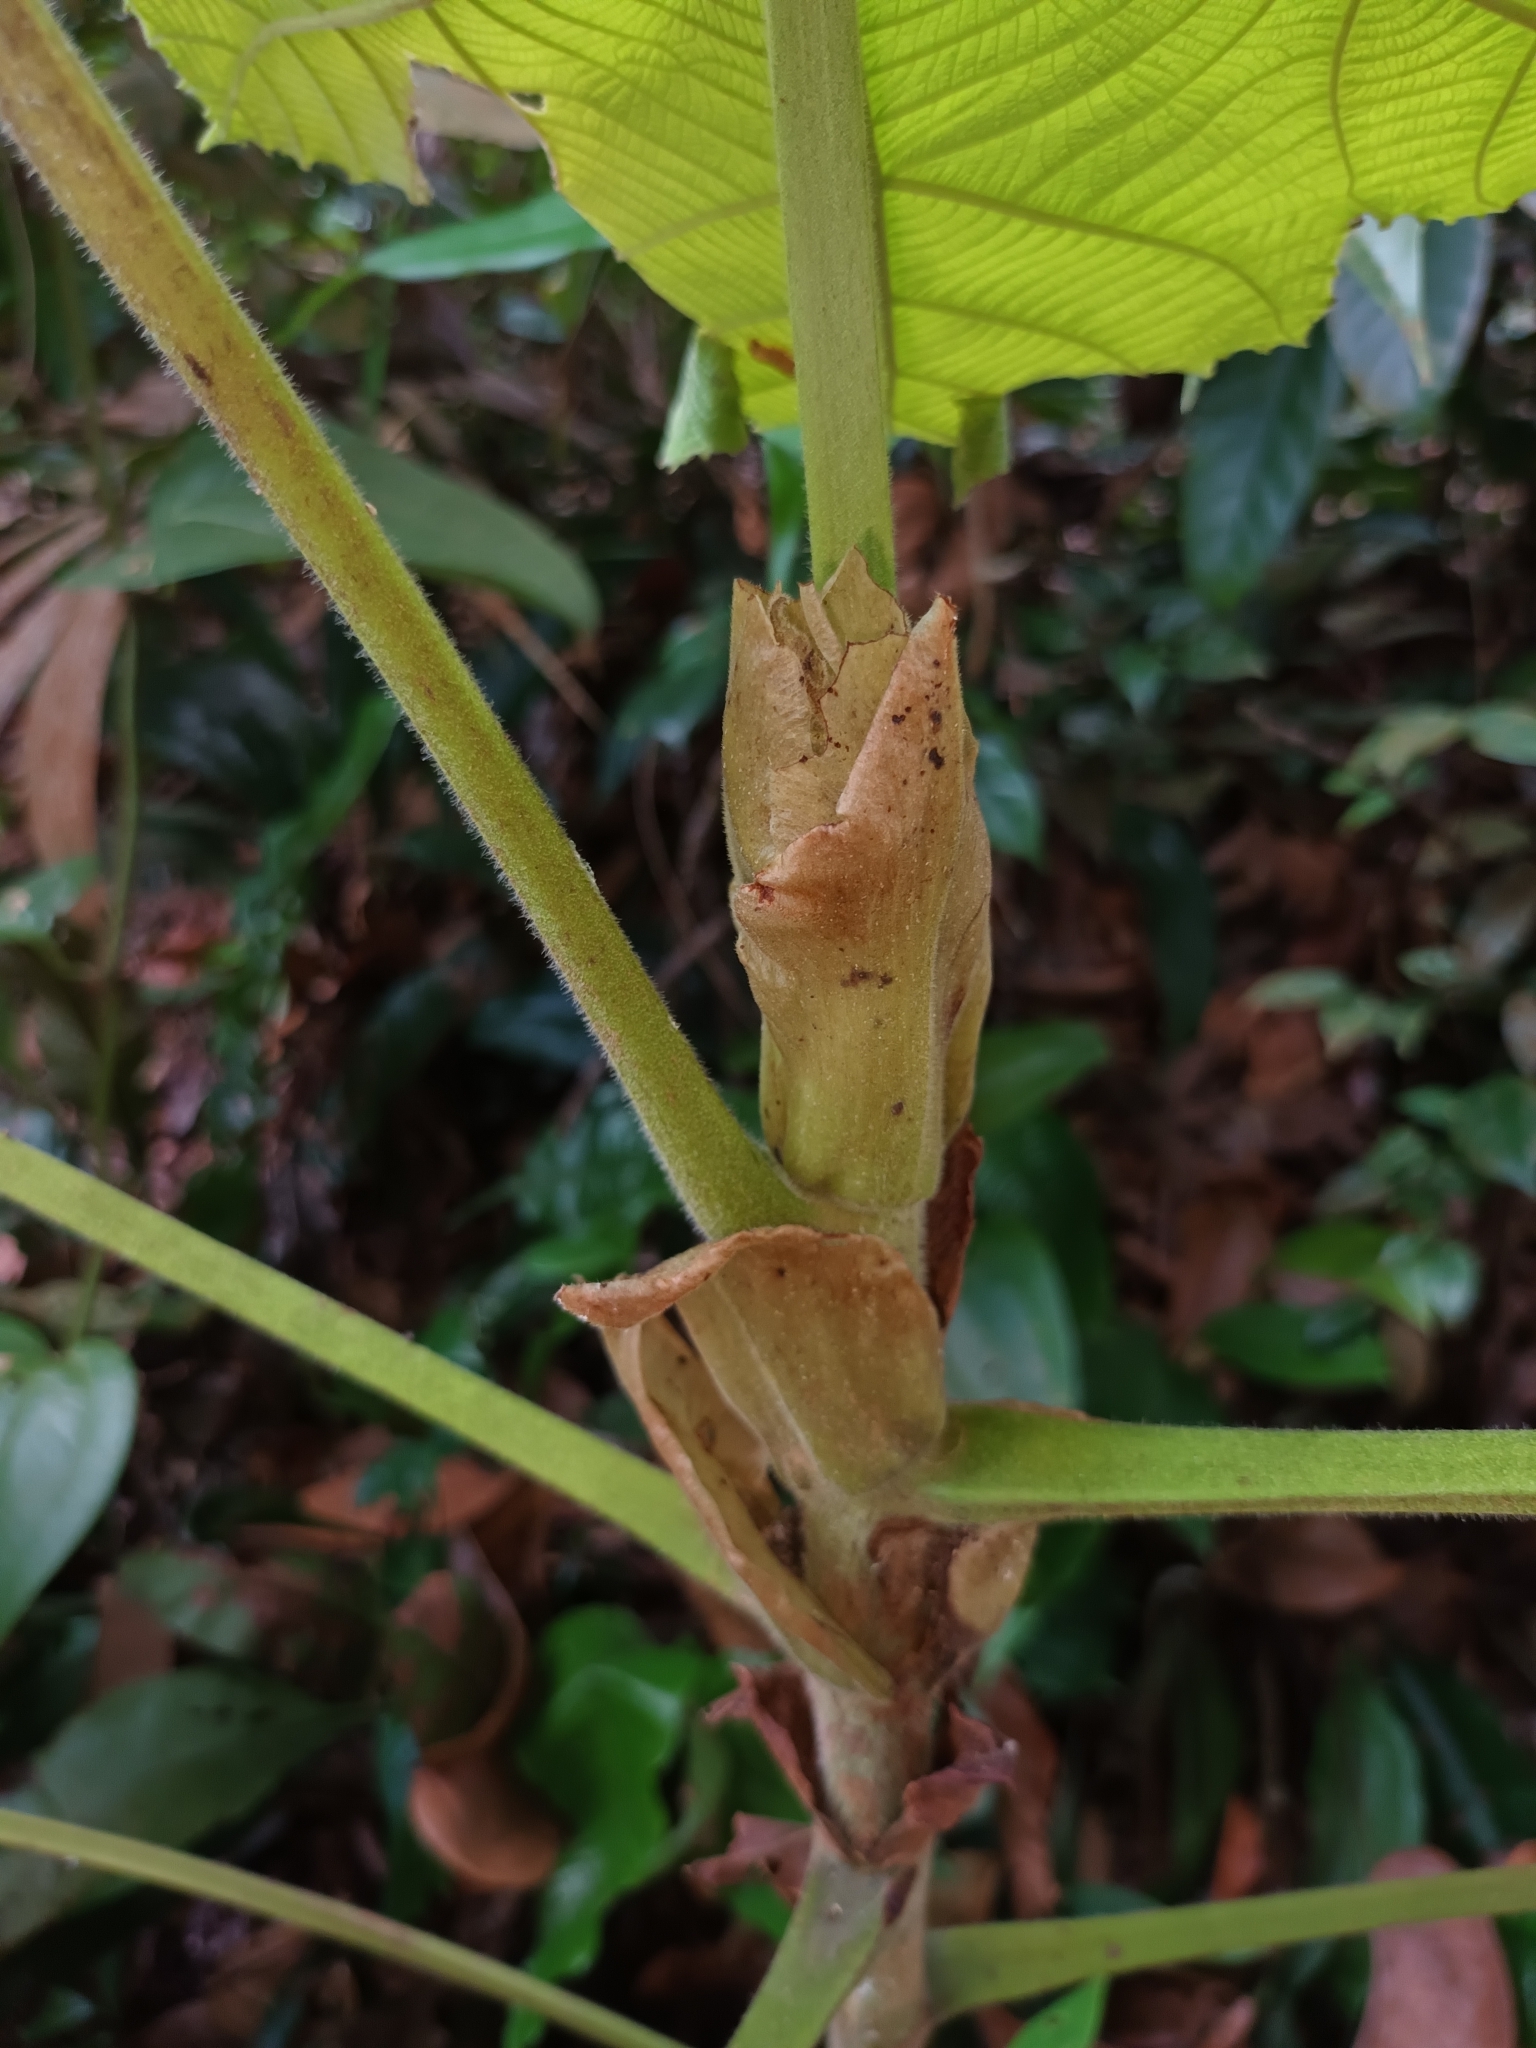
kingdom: Plantae
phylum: Tracheophyta
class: Magnoliopsida
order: Malpighiales
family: Euphorbiaceae
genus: Macaranga
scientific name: Macaranga gigantea
